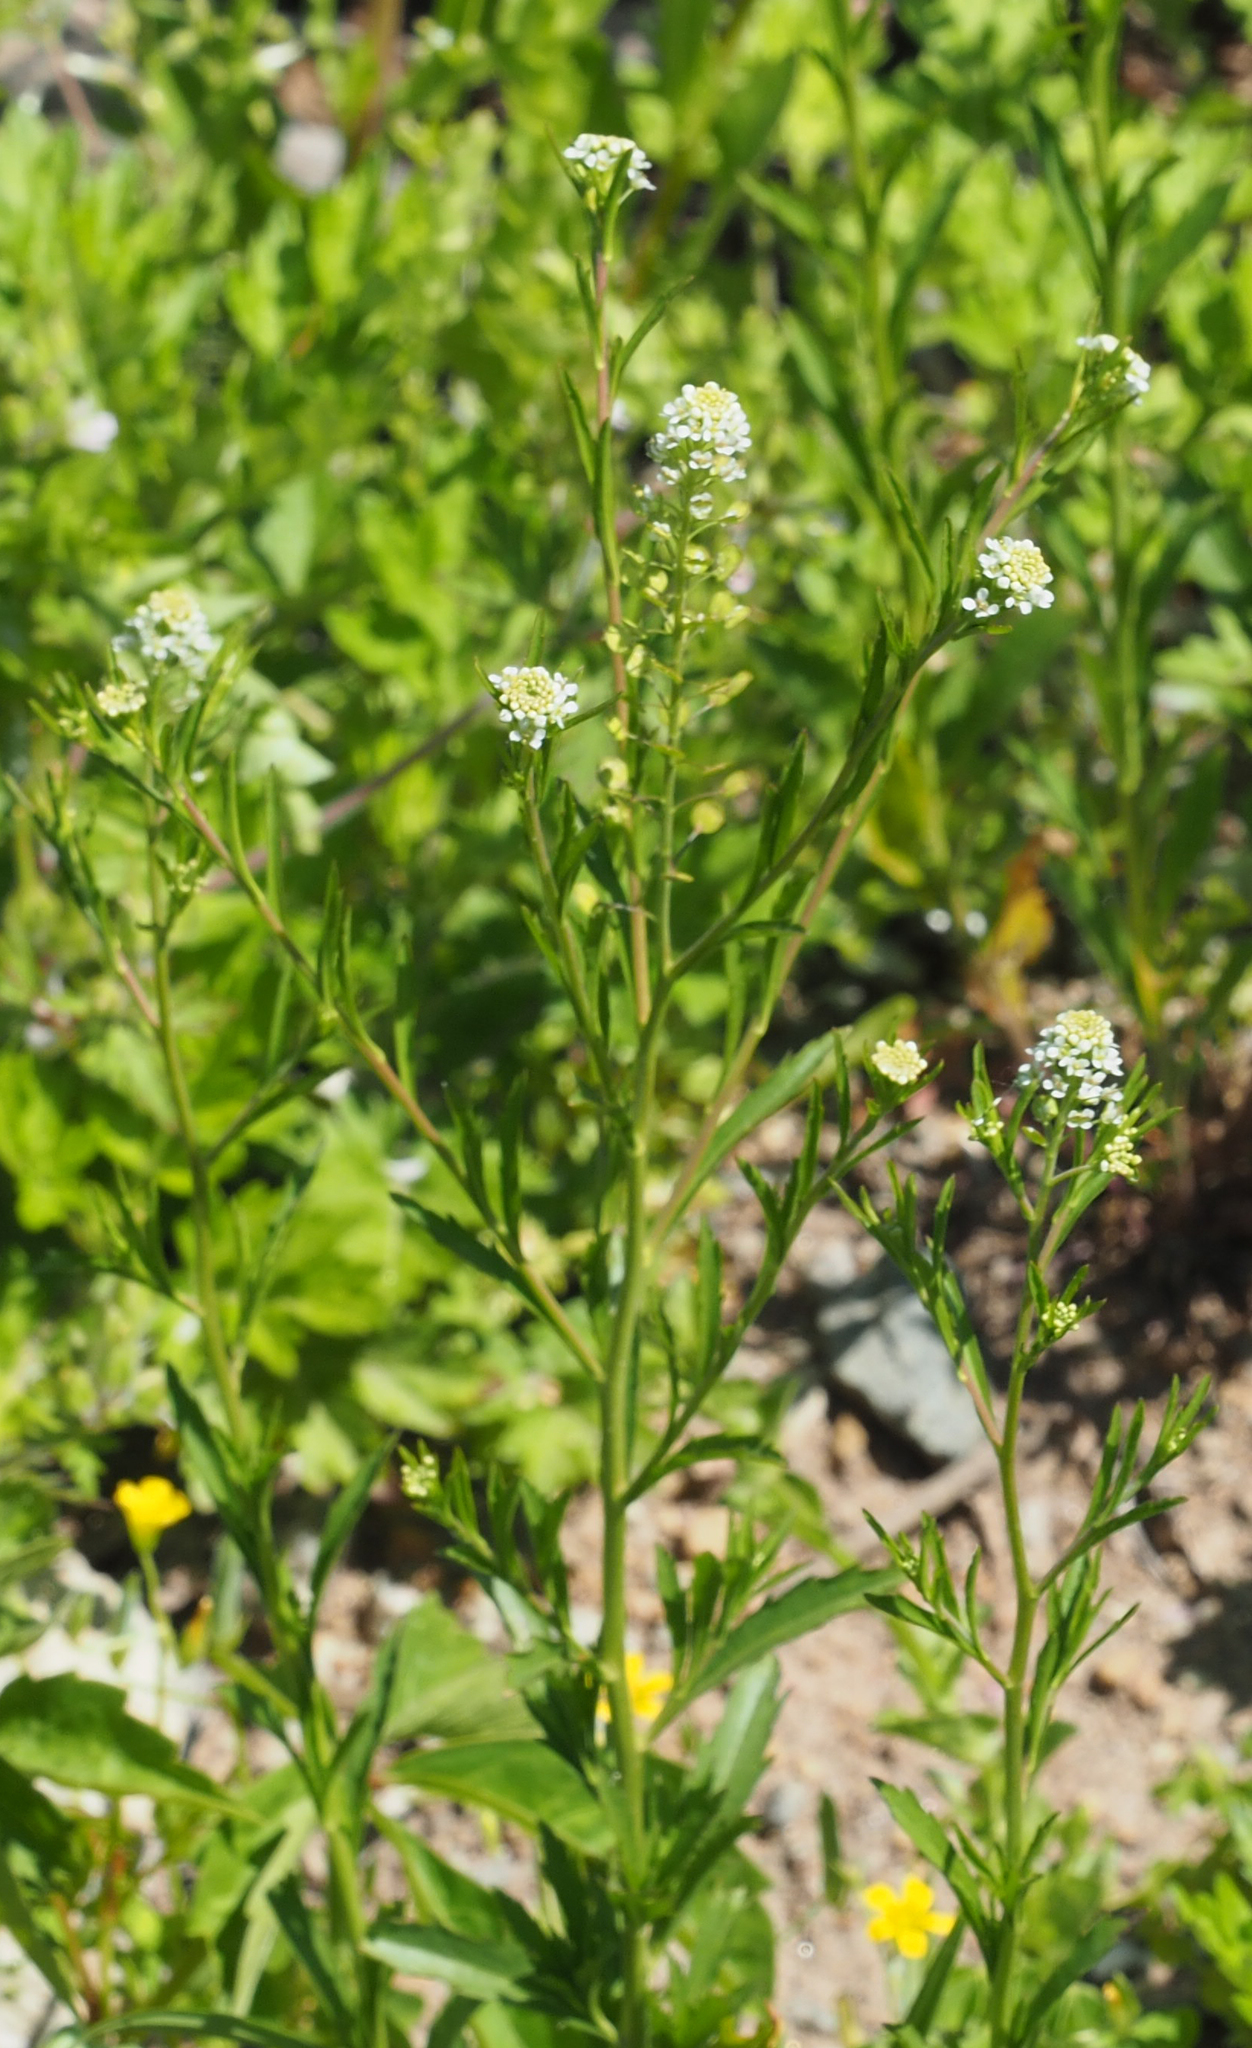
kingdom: Plantae
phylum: Tracheophyta
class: Magnoliopsida
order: Brassicales
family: Brassicaceae
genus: Lepidium
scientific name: Lepidium virginicum
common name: Least pepperwort
